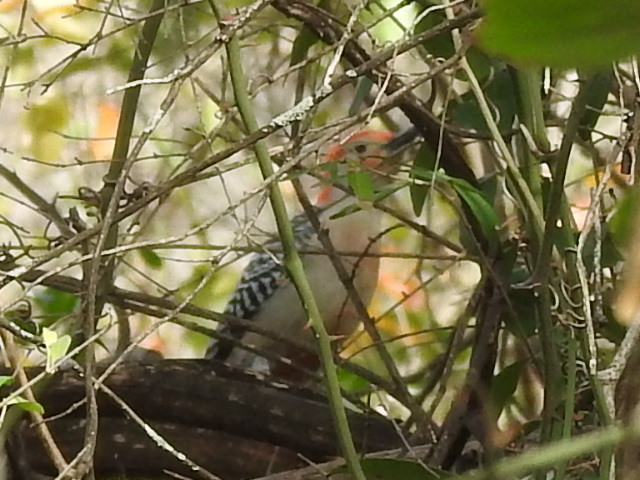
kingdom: Animalia
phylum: Chordata
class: Aves
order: Piciformes
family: Picidae
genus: Melanerpes
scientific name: Melanerpes carolinus
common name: Red-bellied woodpecker
